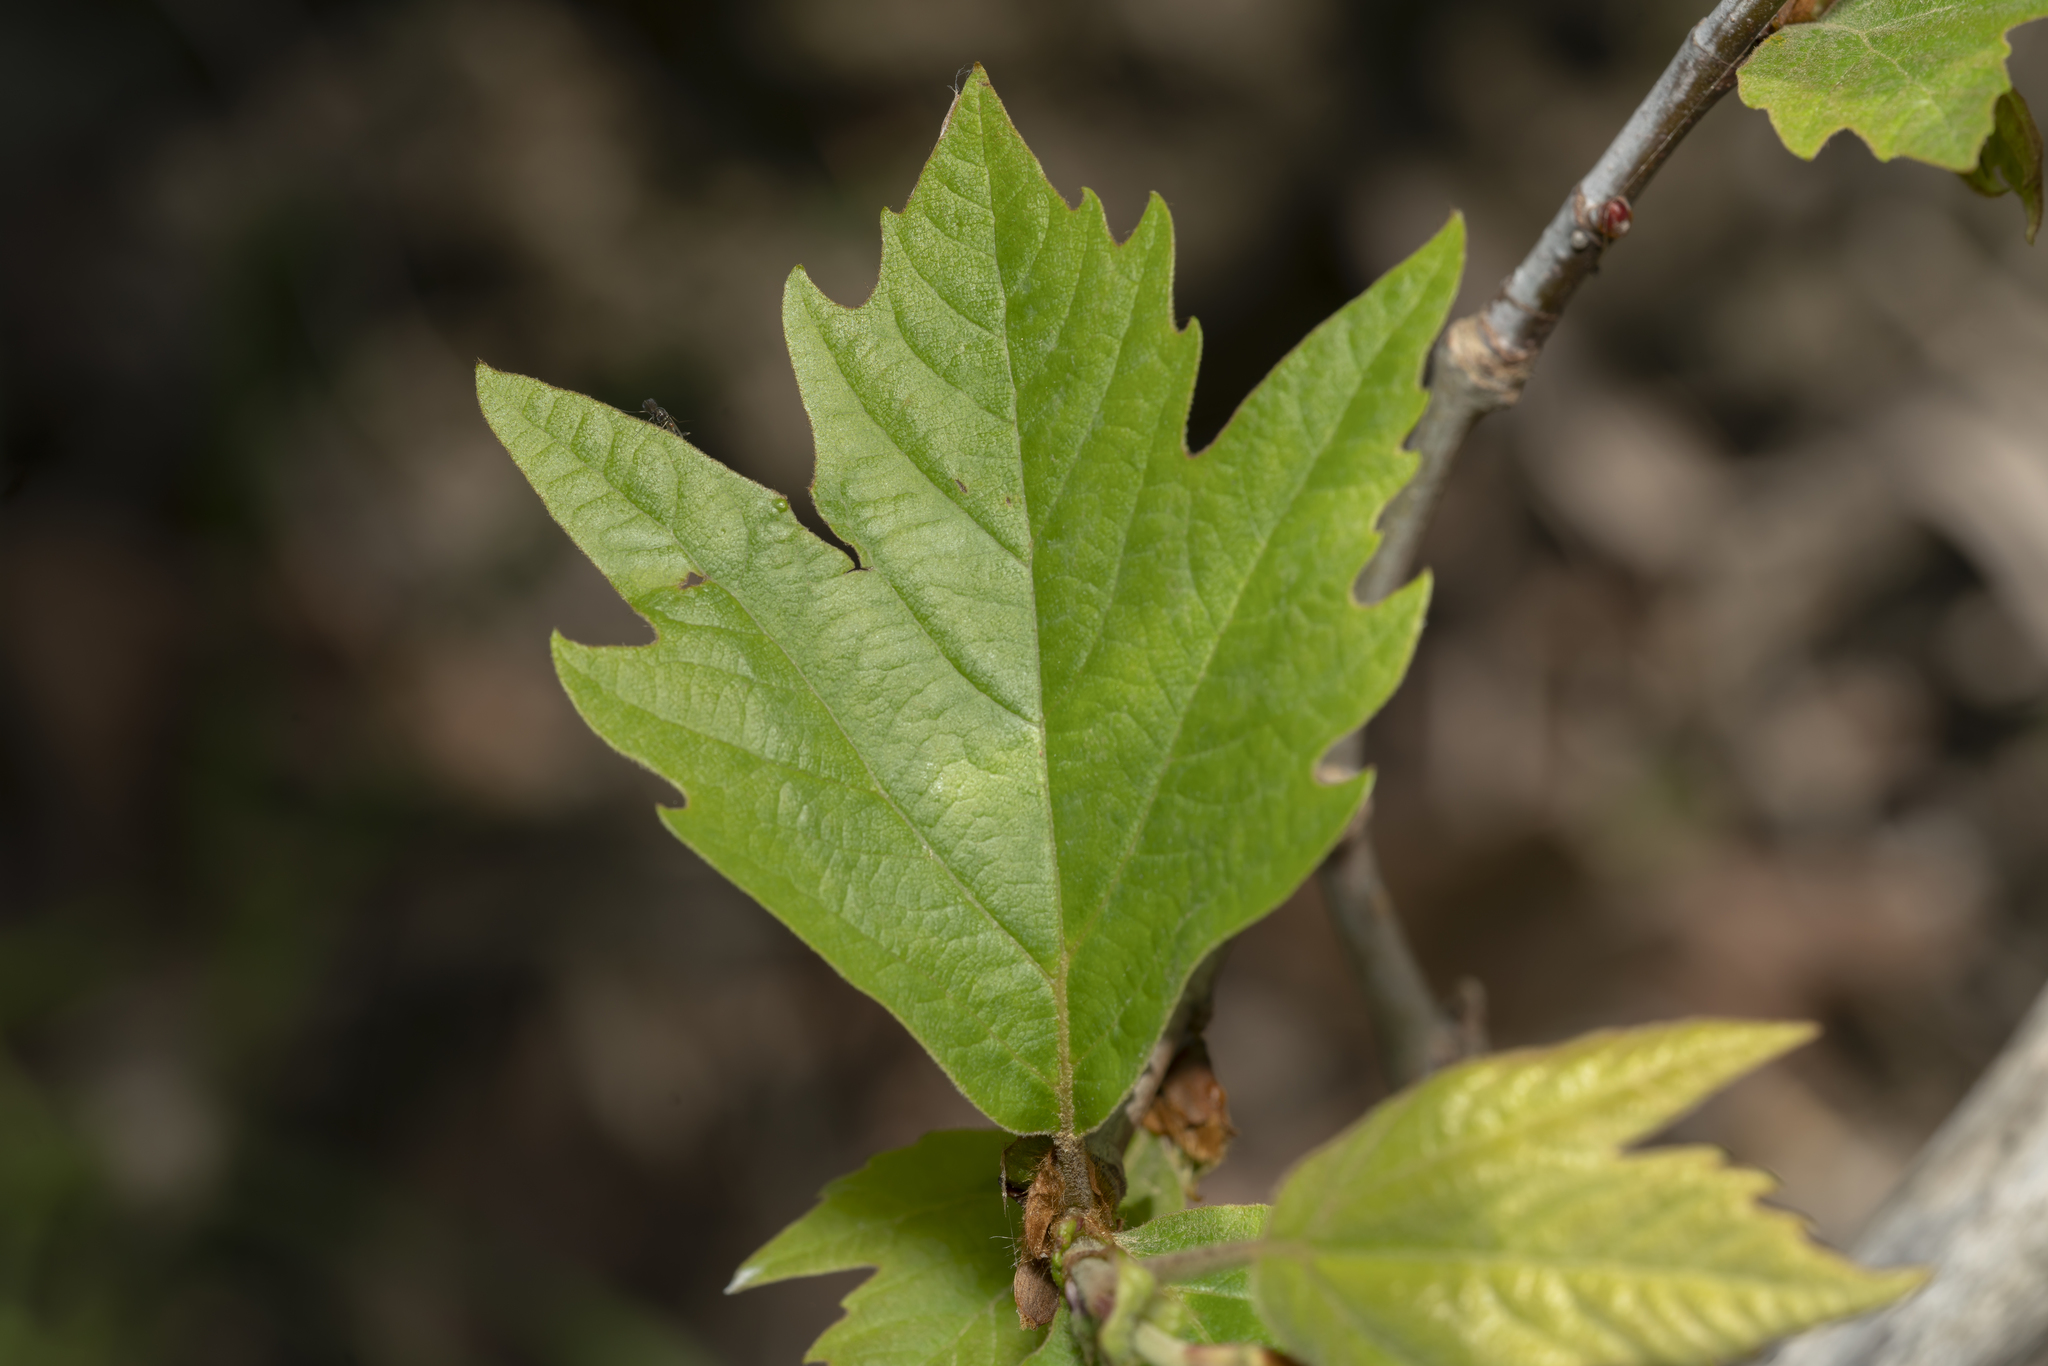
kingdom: Plantae
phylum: Tracheophyta
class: Magnoliopsida
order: Proteales
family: Platanaceae
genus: Platanus
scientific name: Platanus orientalis
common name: Oriental plane
